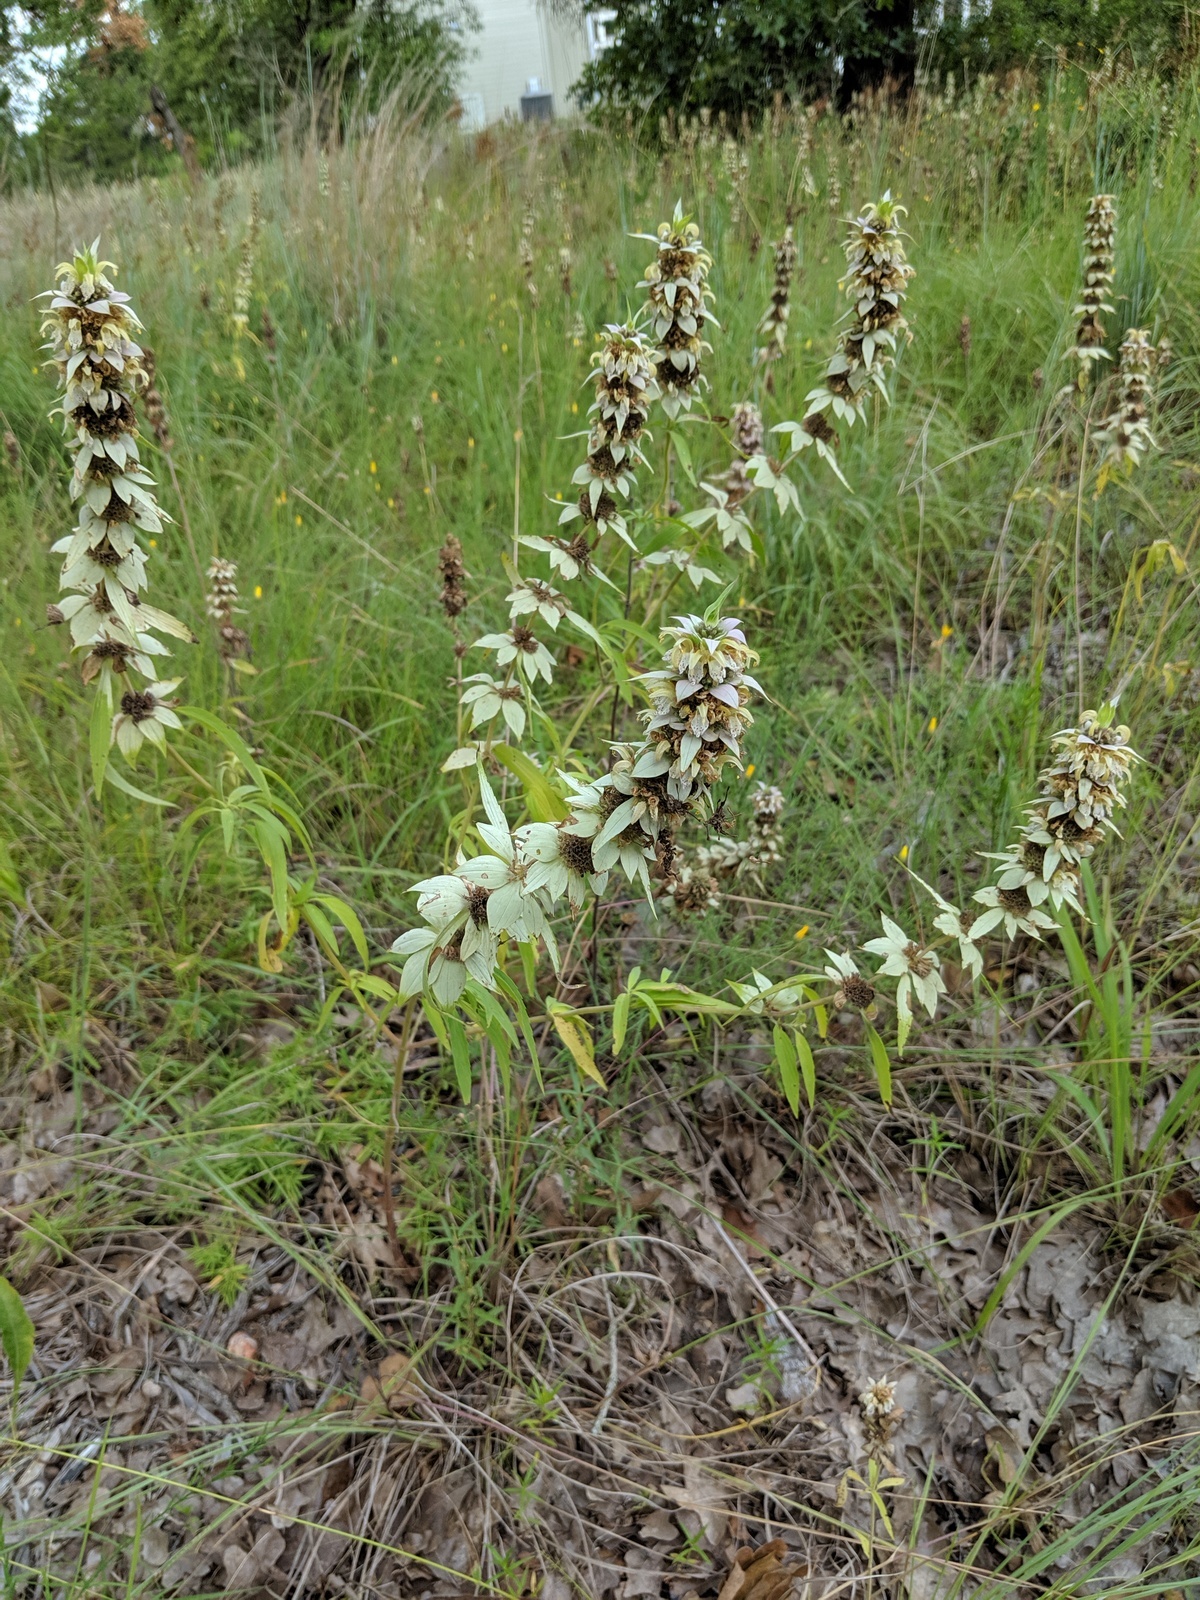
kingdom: Plantae
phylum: Tracheophyta
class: Magnoliopsida
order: Lamiales
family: Lamiaceae
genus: Monarda
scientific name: Monarda punctata
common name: Dotted monarda
